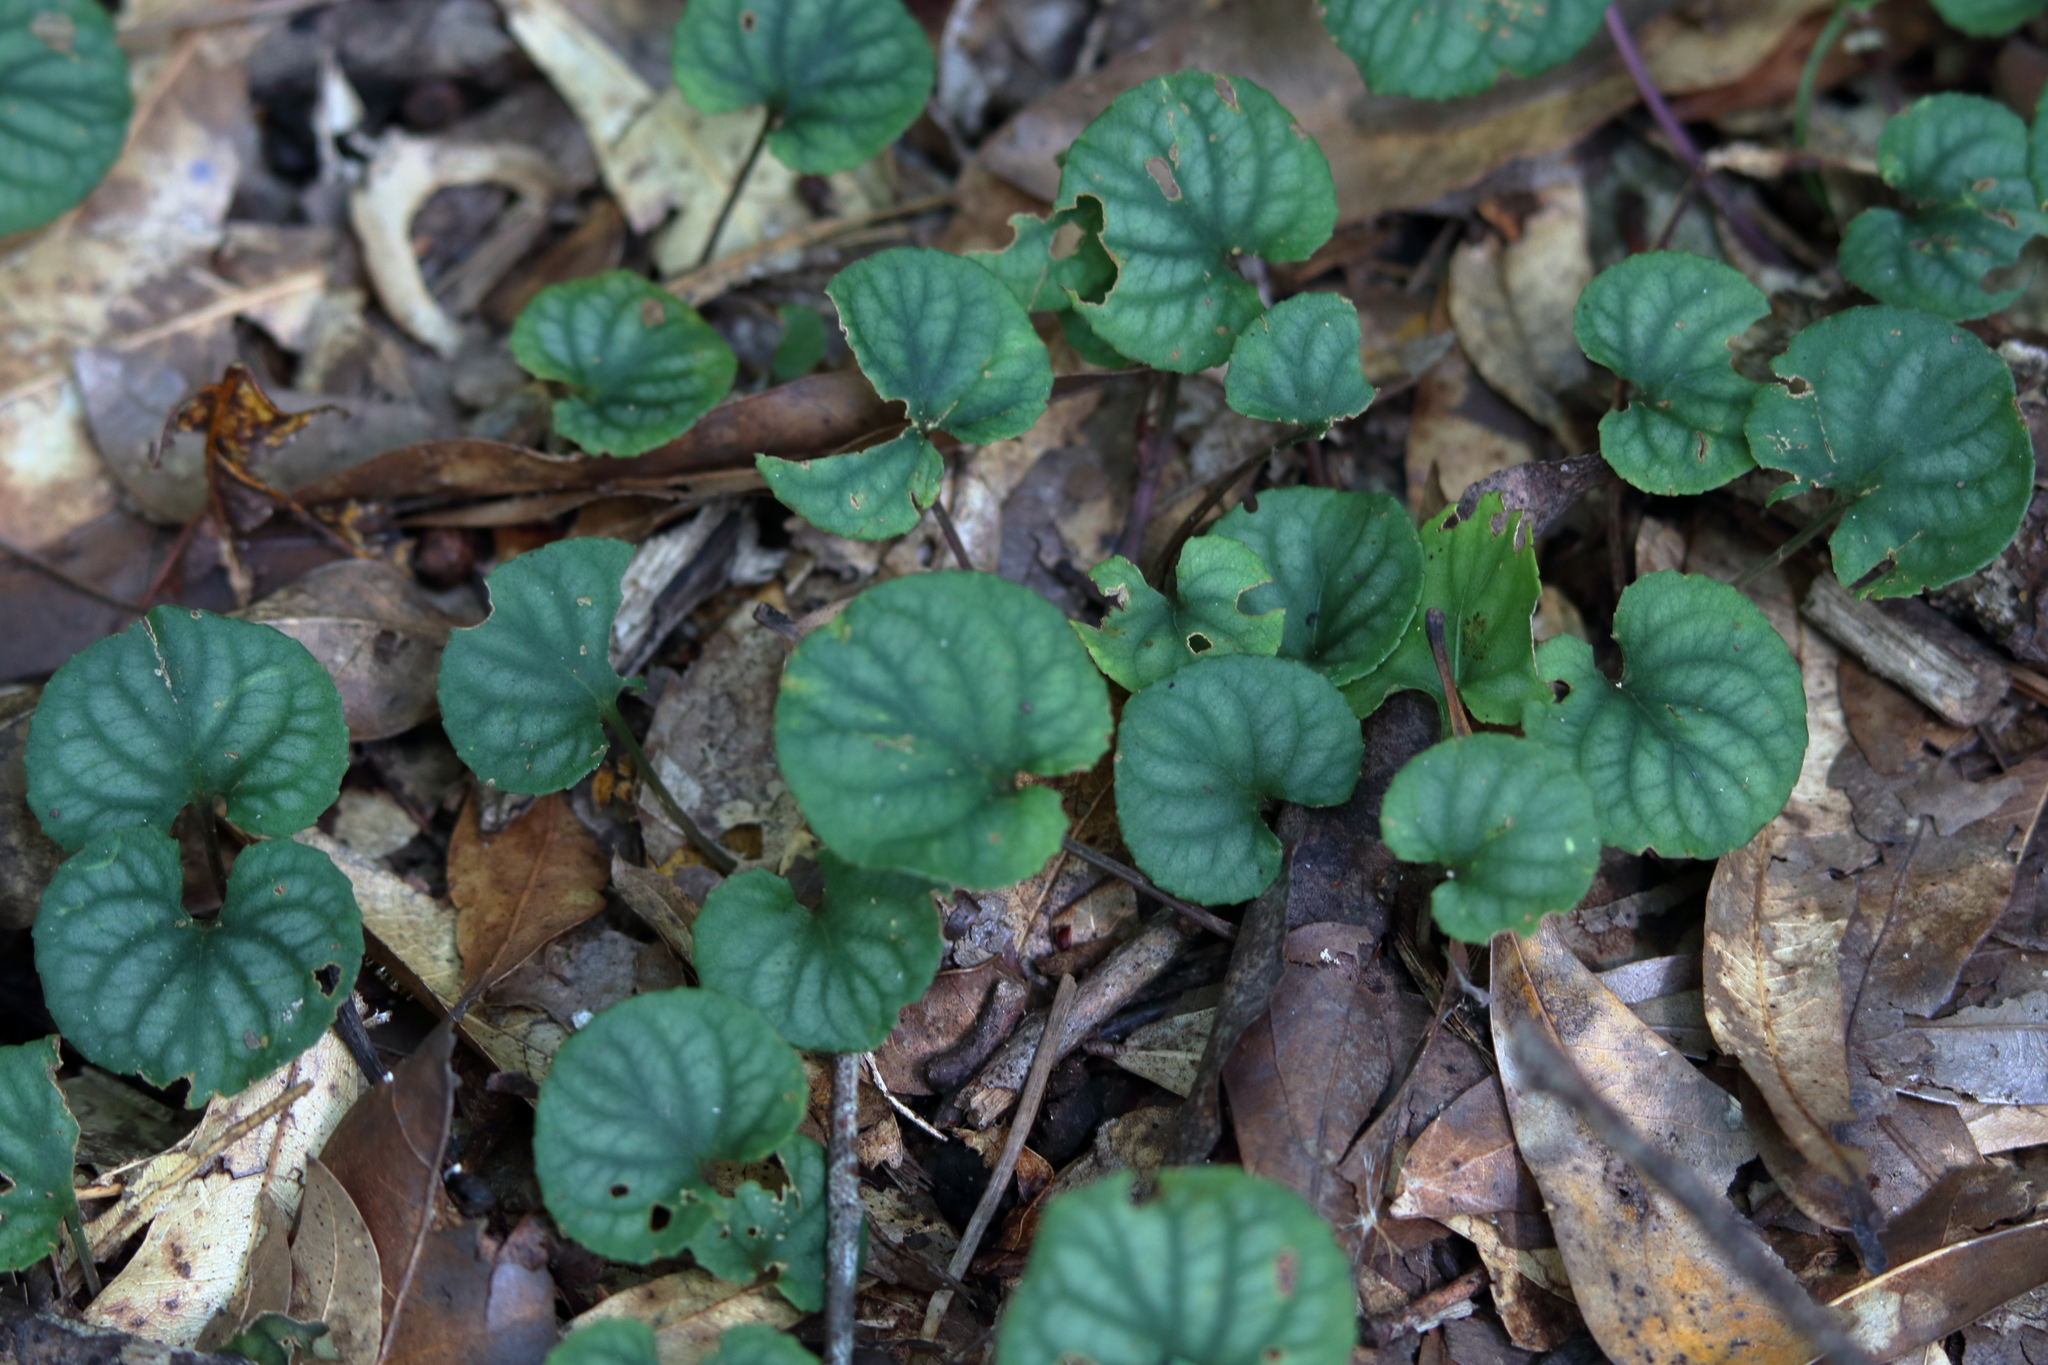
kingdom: Plantae
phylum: Tracheophyta
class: Magnoliopsida
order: Malpighiales
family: Violaceae
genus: Viola
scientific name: Viola walteri
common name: Prostrate southern violet
